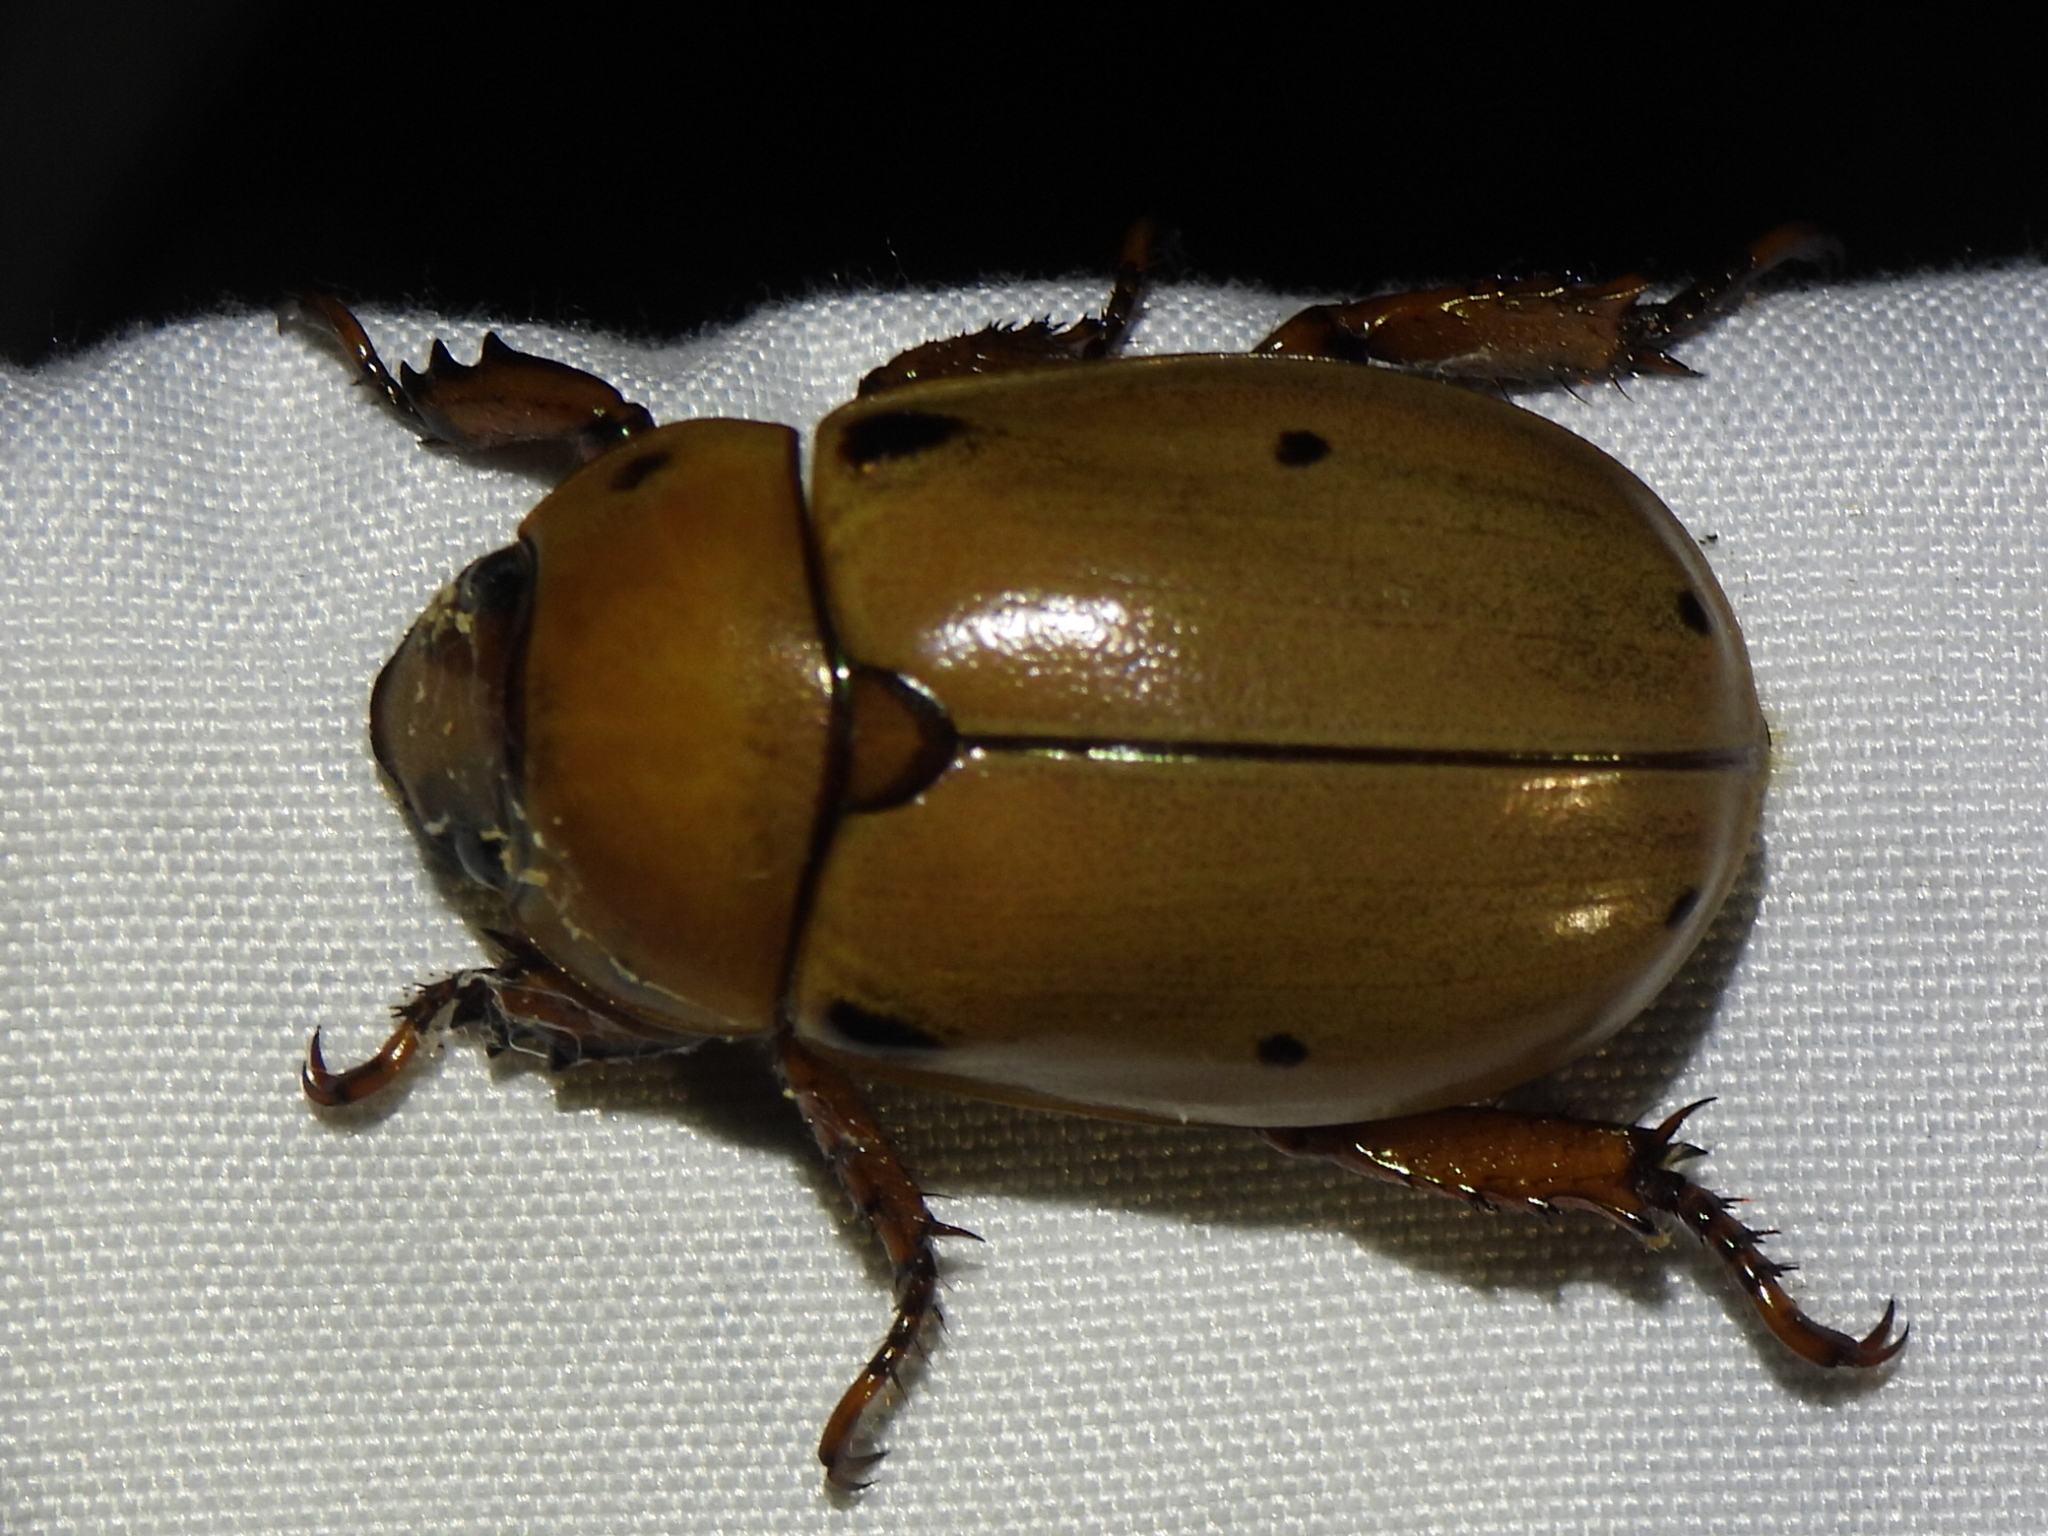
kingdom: Animalia
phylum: Arthropoda
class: Insecta
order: Coleoptera
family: Scarabaeidae
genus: Pelidnota
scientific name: Pelidnota punctata
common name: Grapevine beetle
